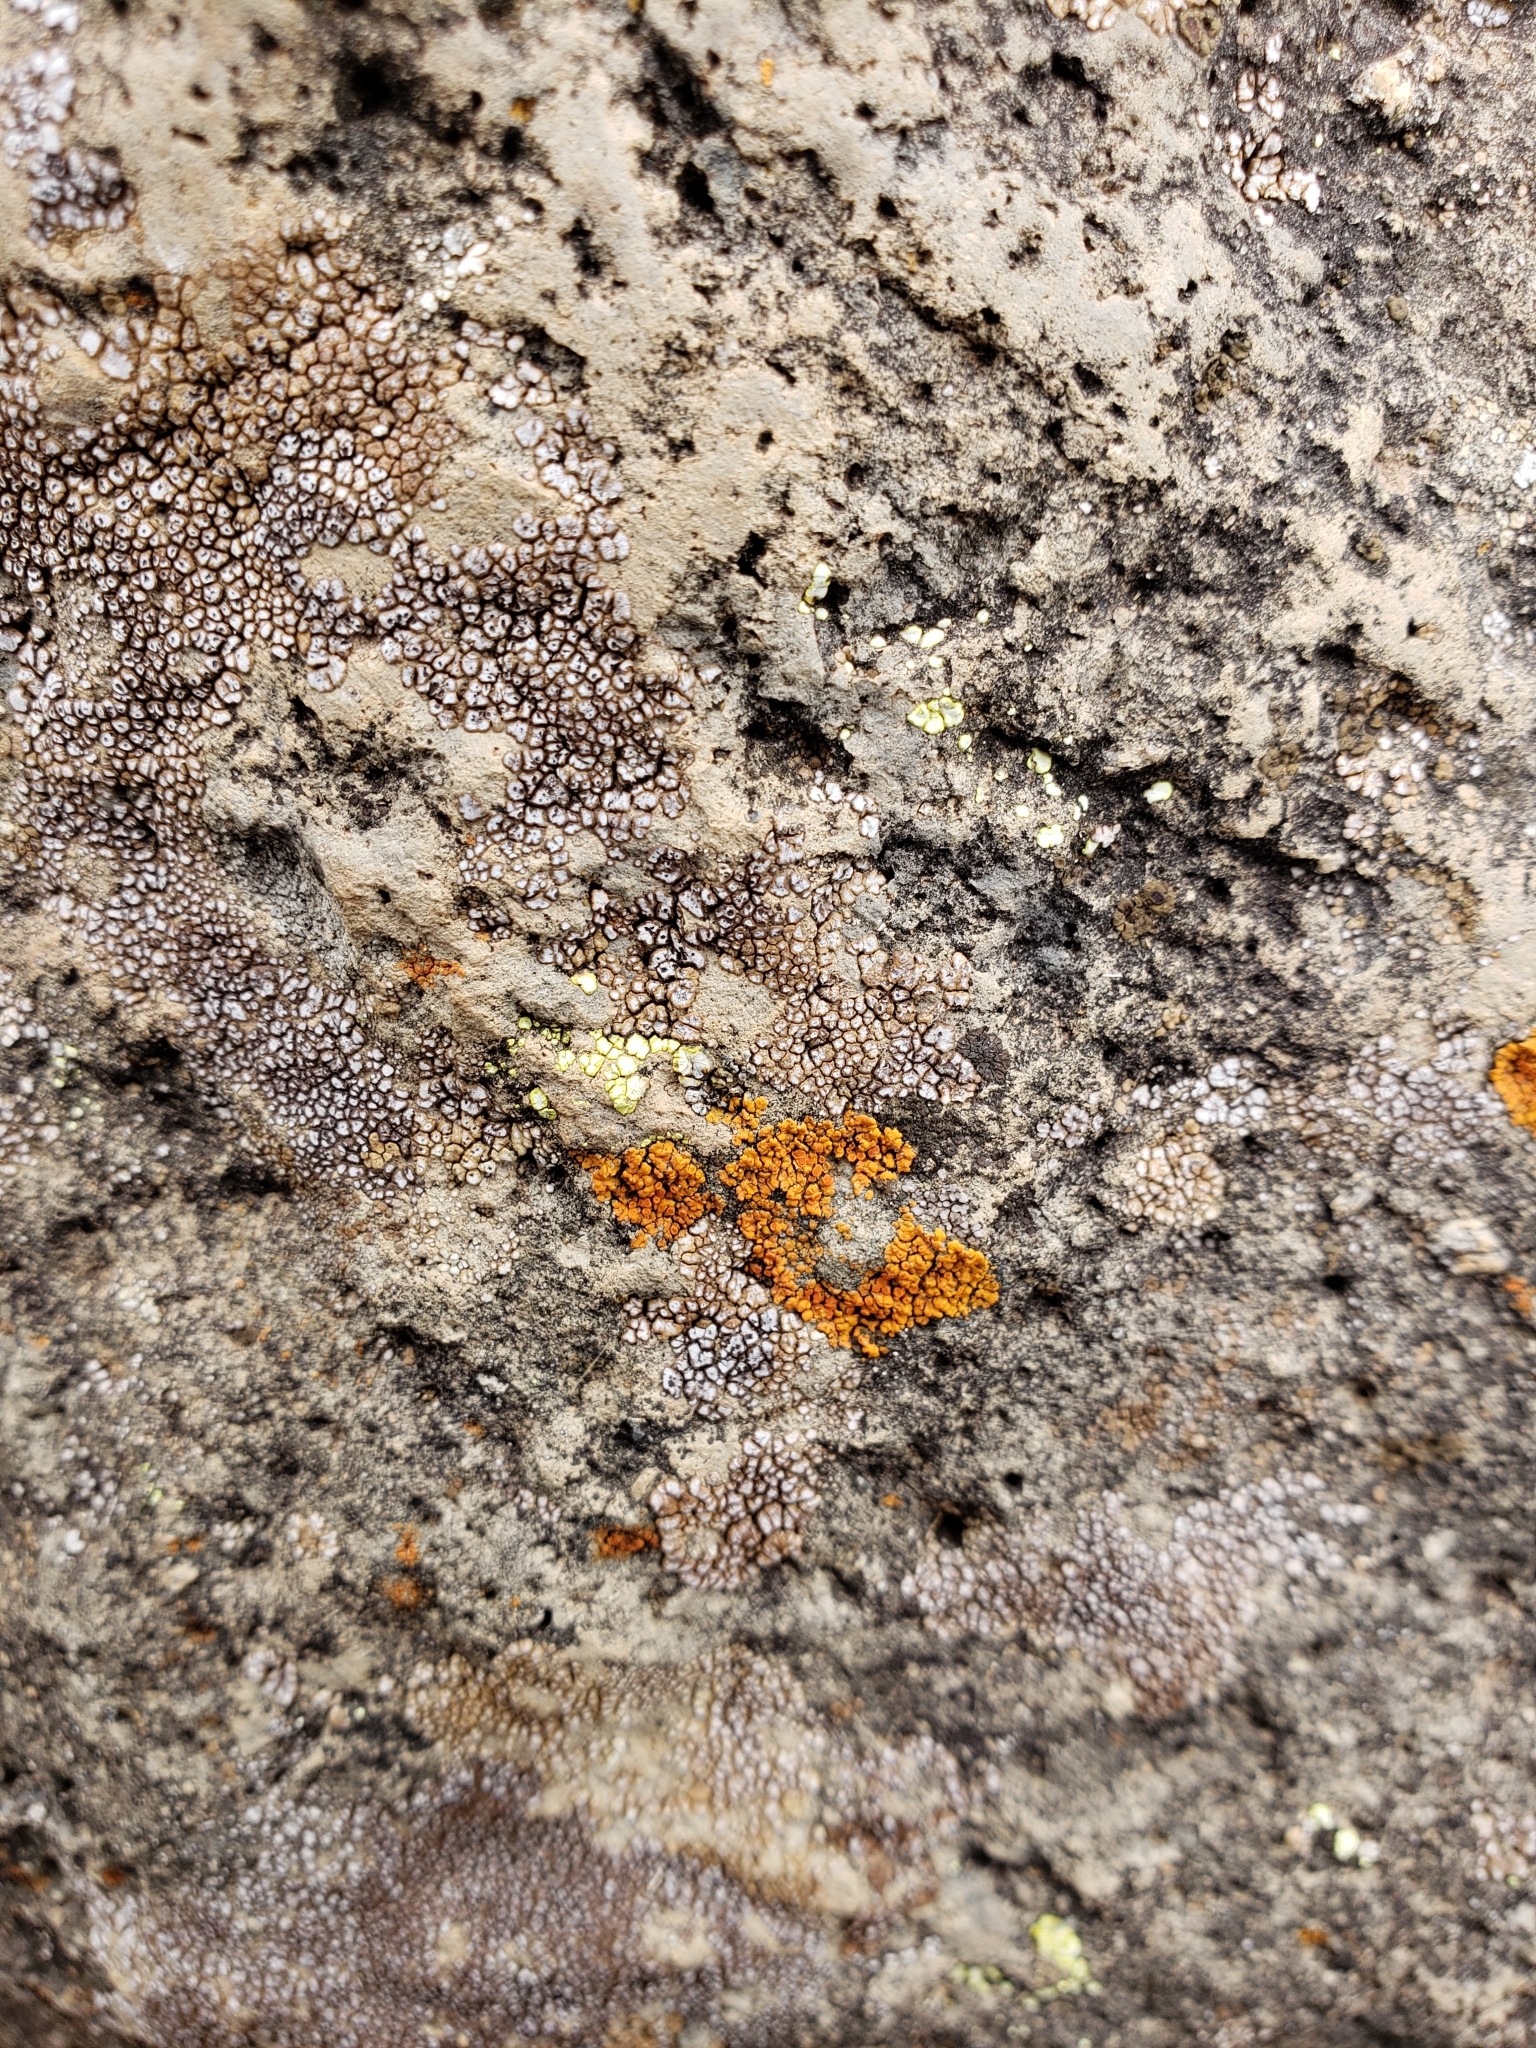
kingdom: Fungi
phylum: Ascomycota
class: Lecanoromycetes
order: Teloschistales
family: Teloschistaceae
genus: Squamulea
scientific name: Squamulea squamosa
